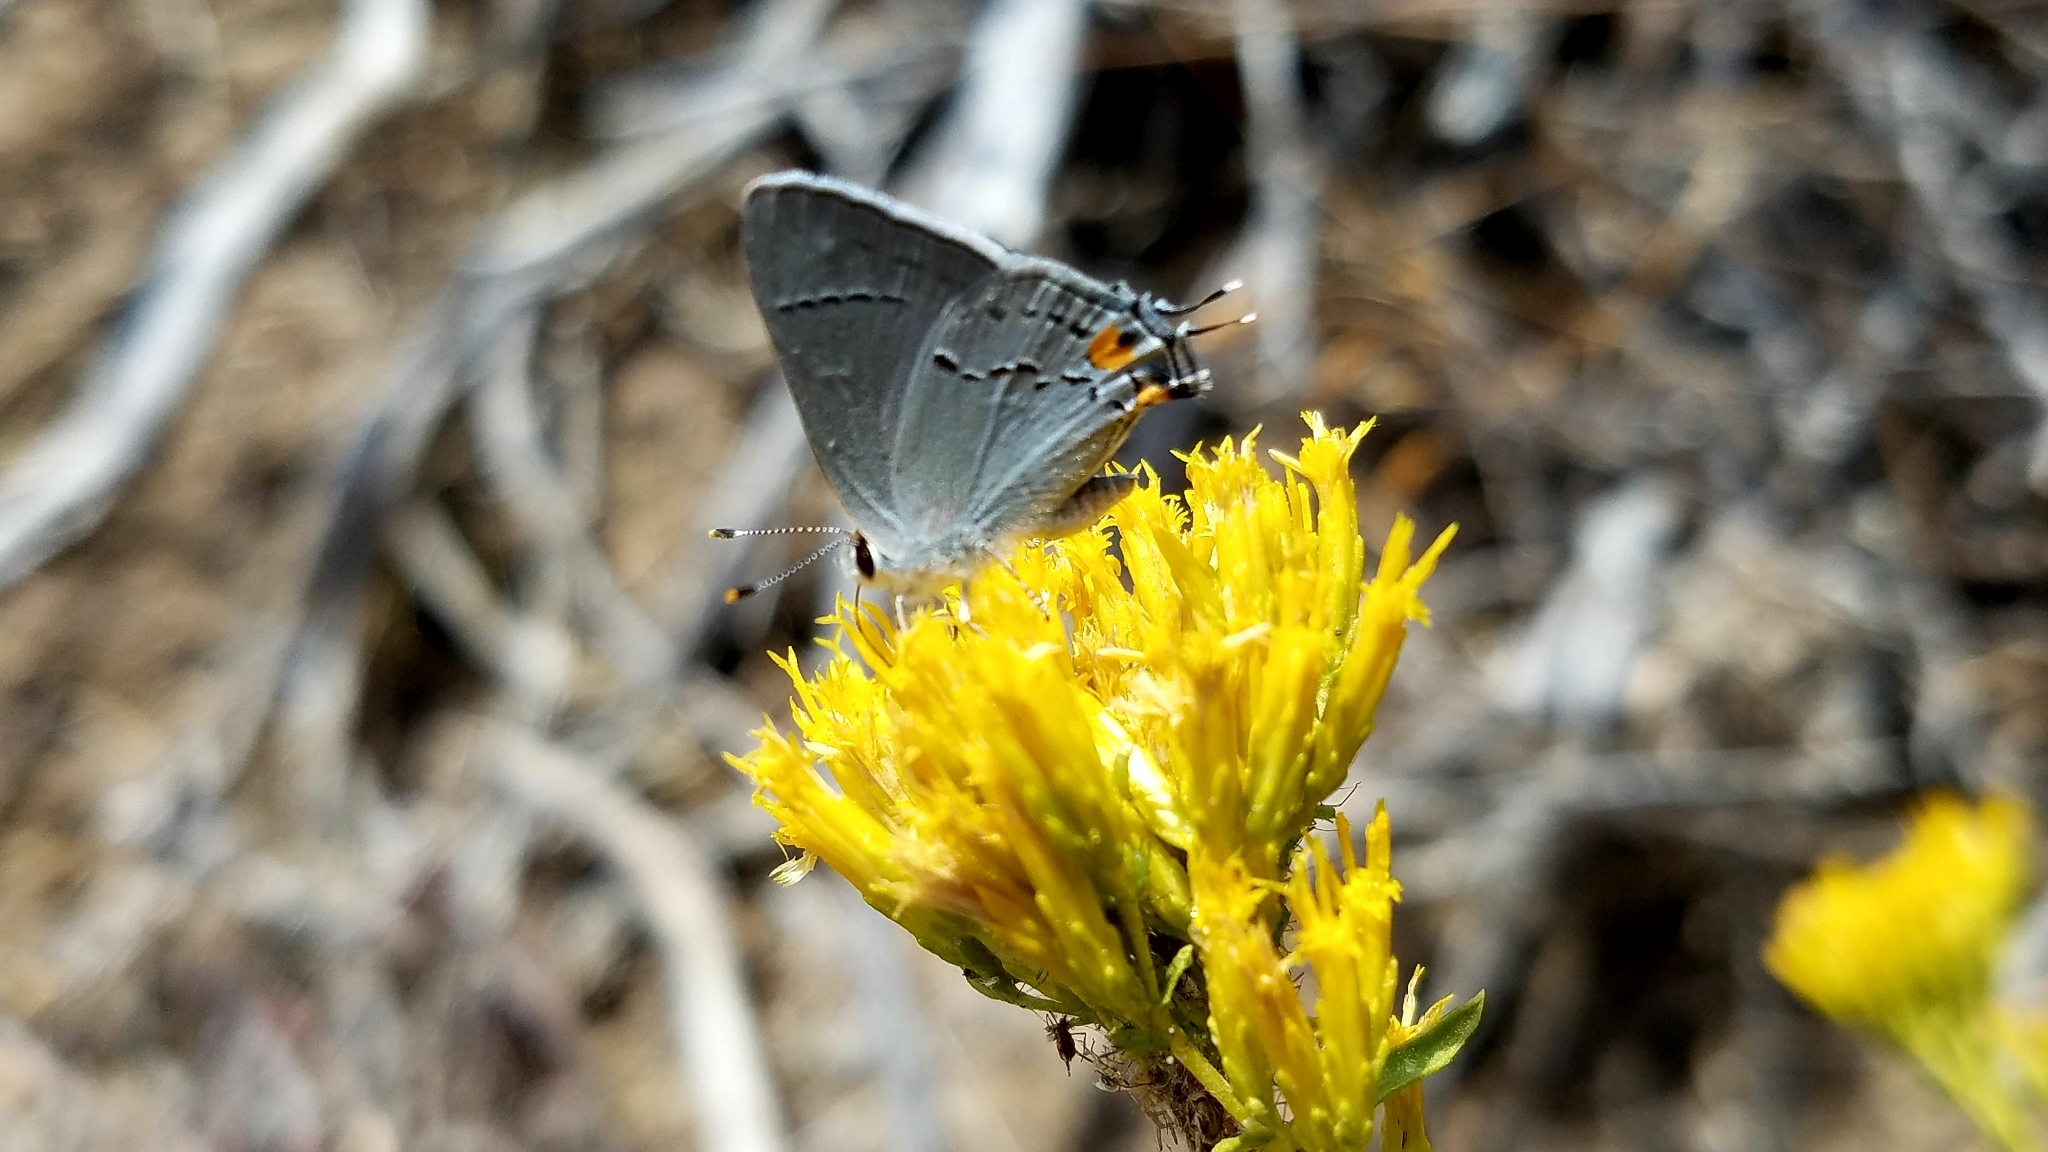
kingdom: Animalia
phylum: Arthropoda
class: Insecta
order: Lepidoptera
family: Lycaenidae
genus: Strymon
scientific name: Strymon melinus
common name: Gray hairstreak
